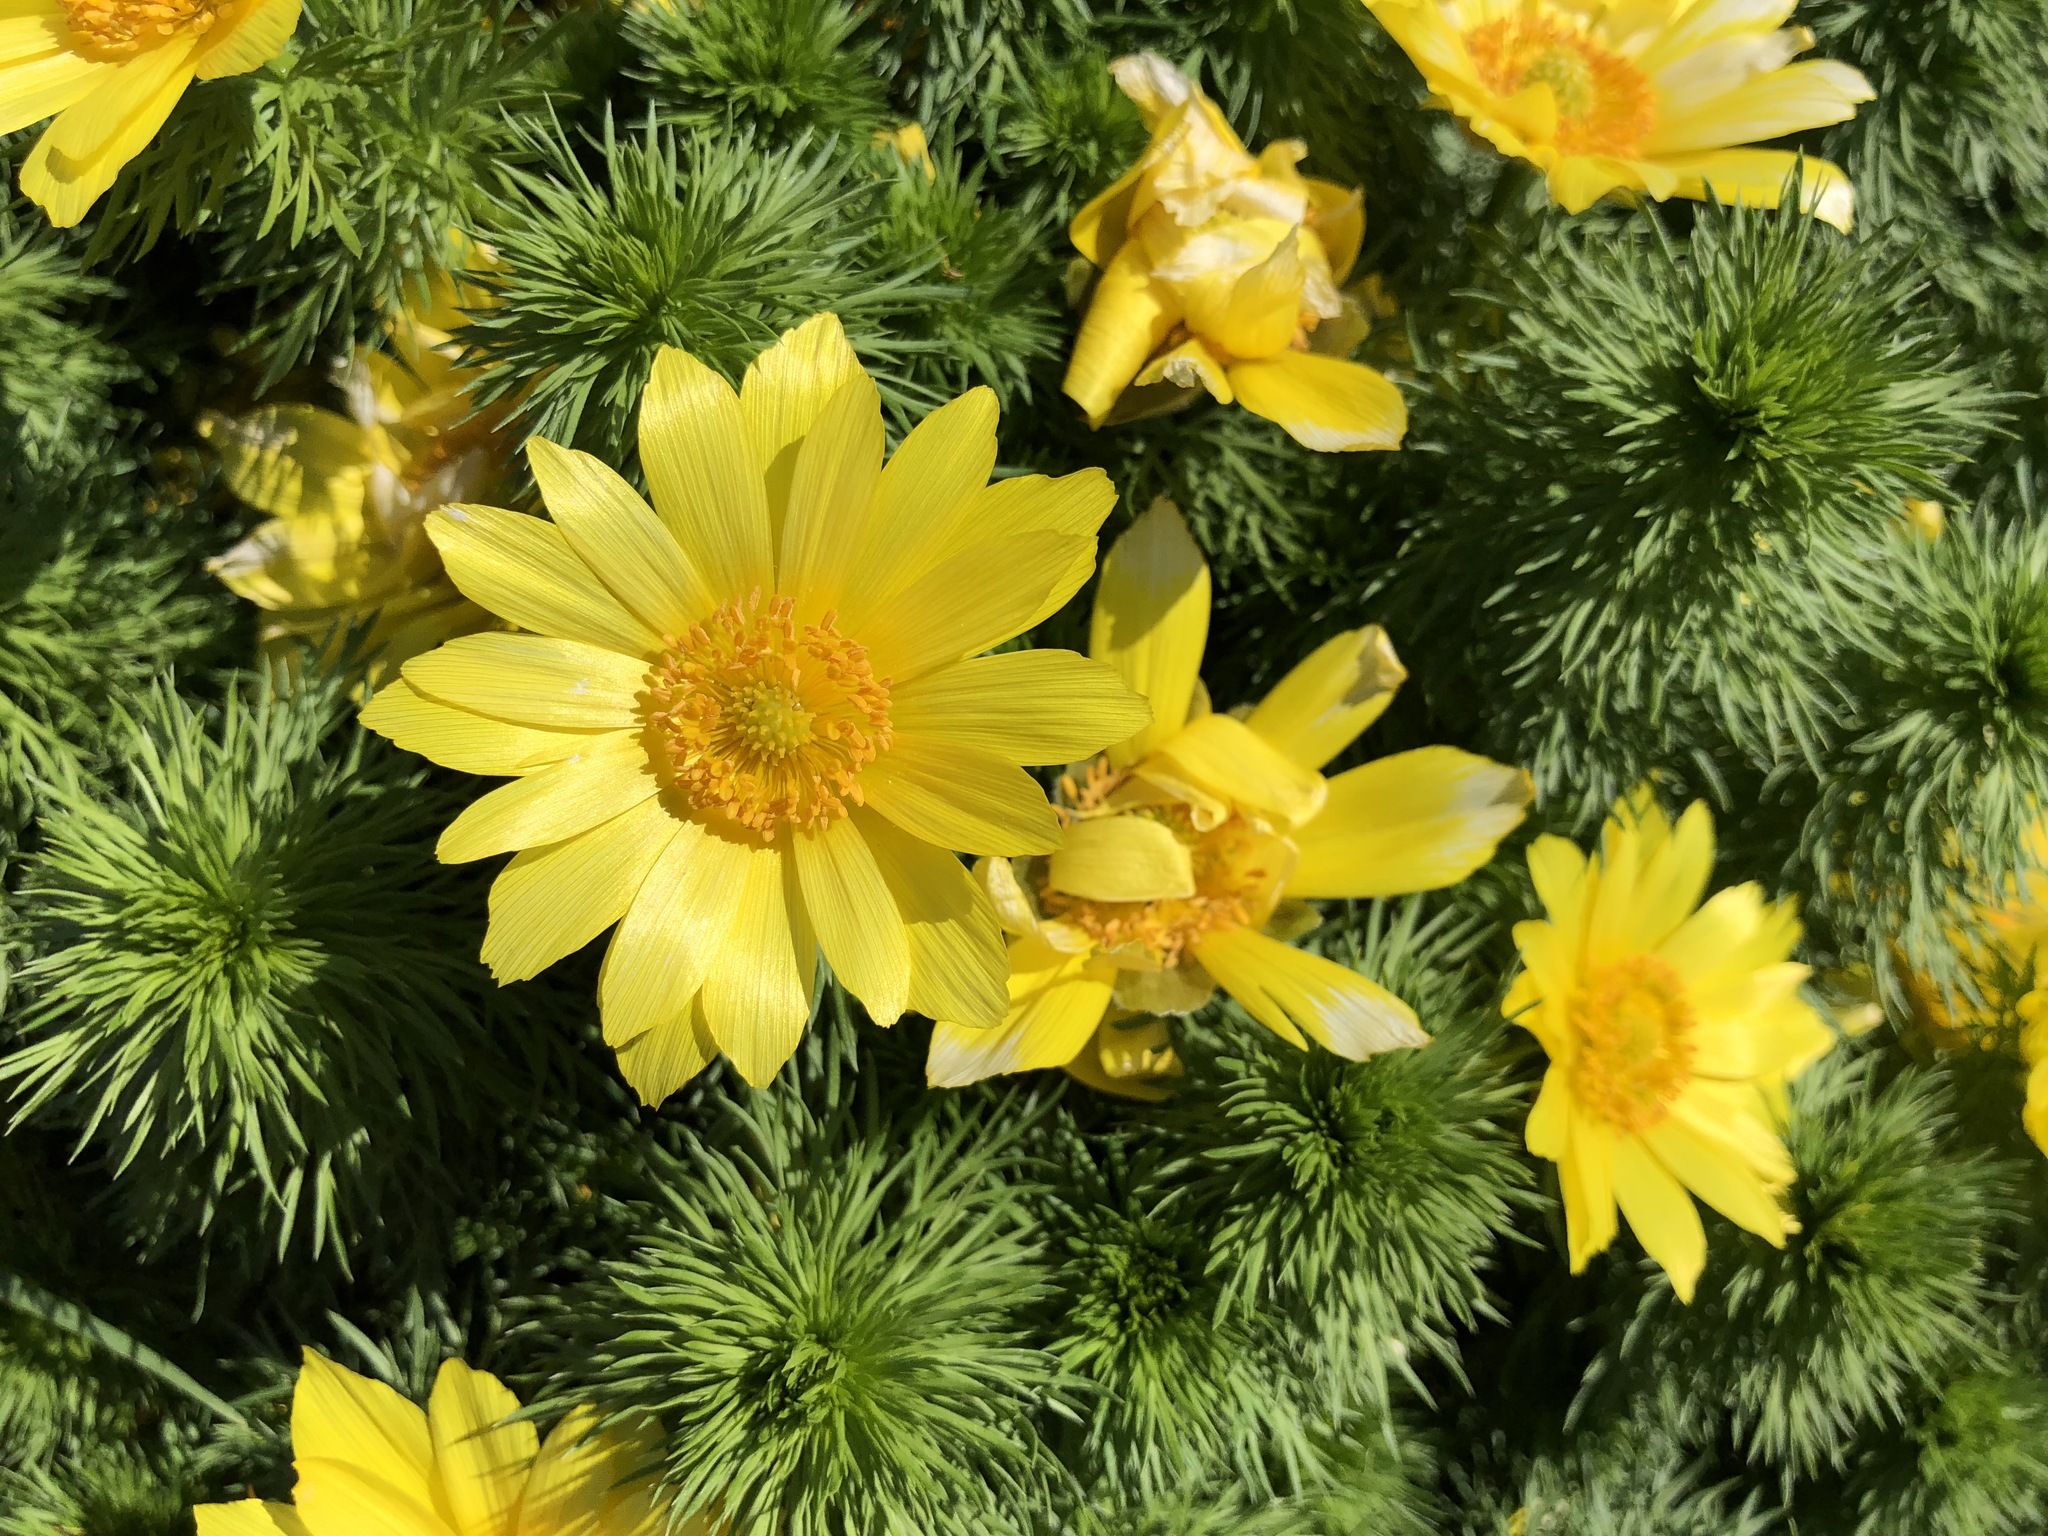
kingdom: Plantae
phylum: Tracheophyta
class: Magnoliopsida
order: Ranunculales
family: Ranunculaceae
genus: Adonis
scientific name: Adonis vernalis
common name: Yellow pheasants-eye
